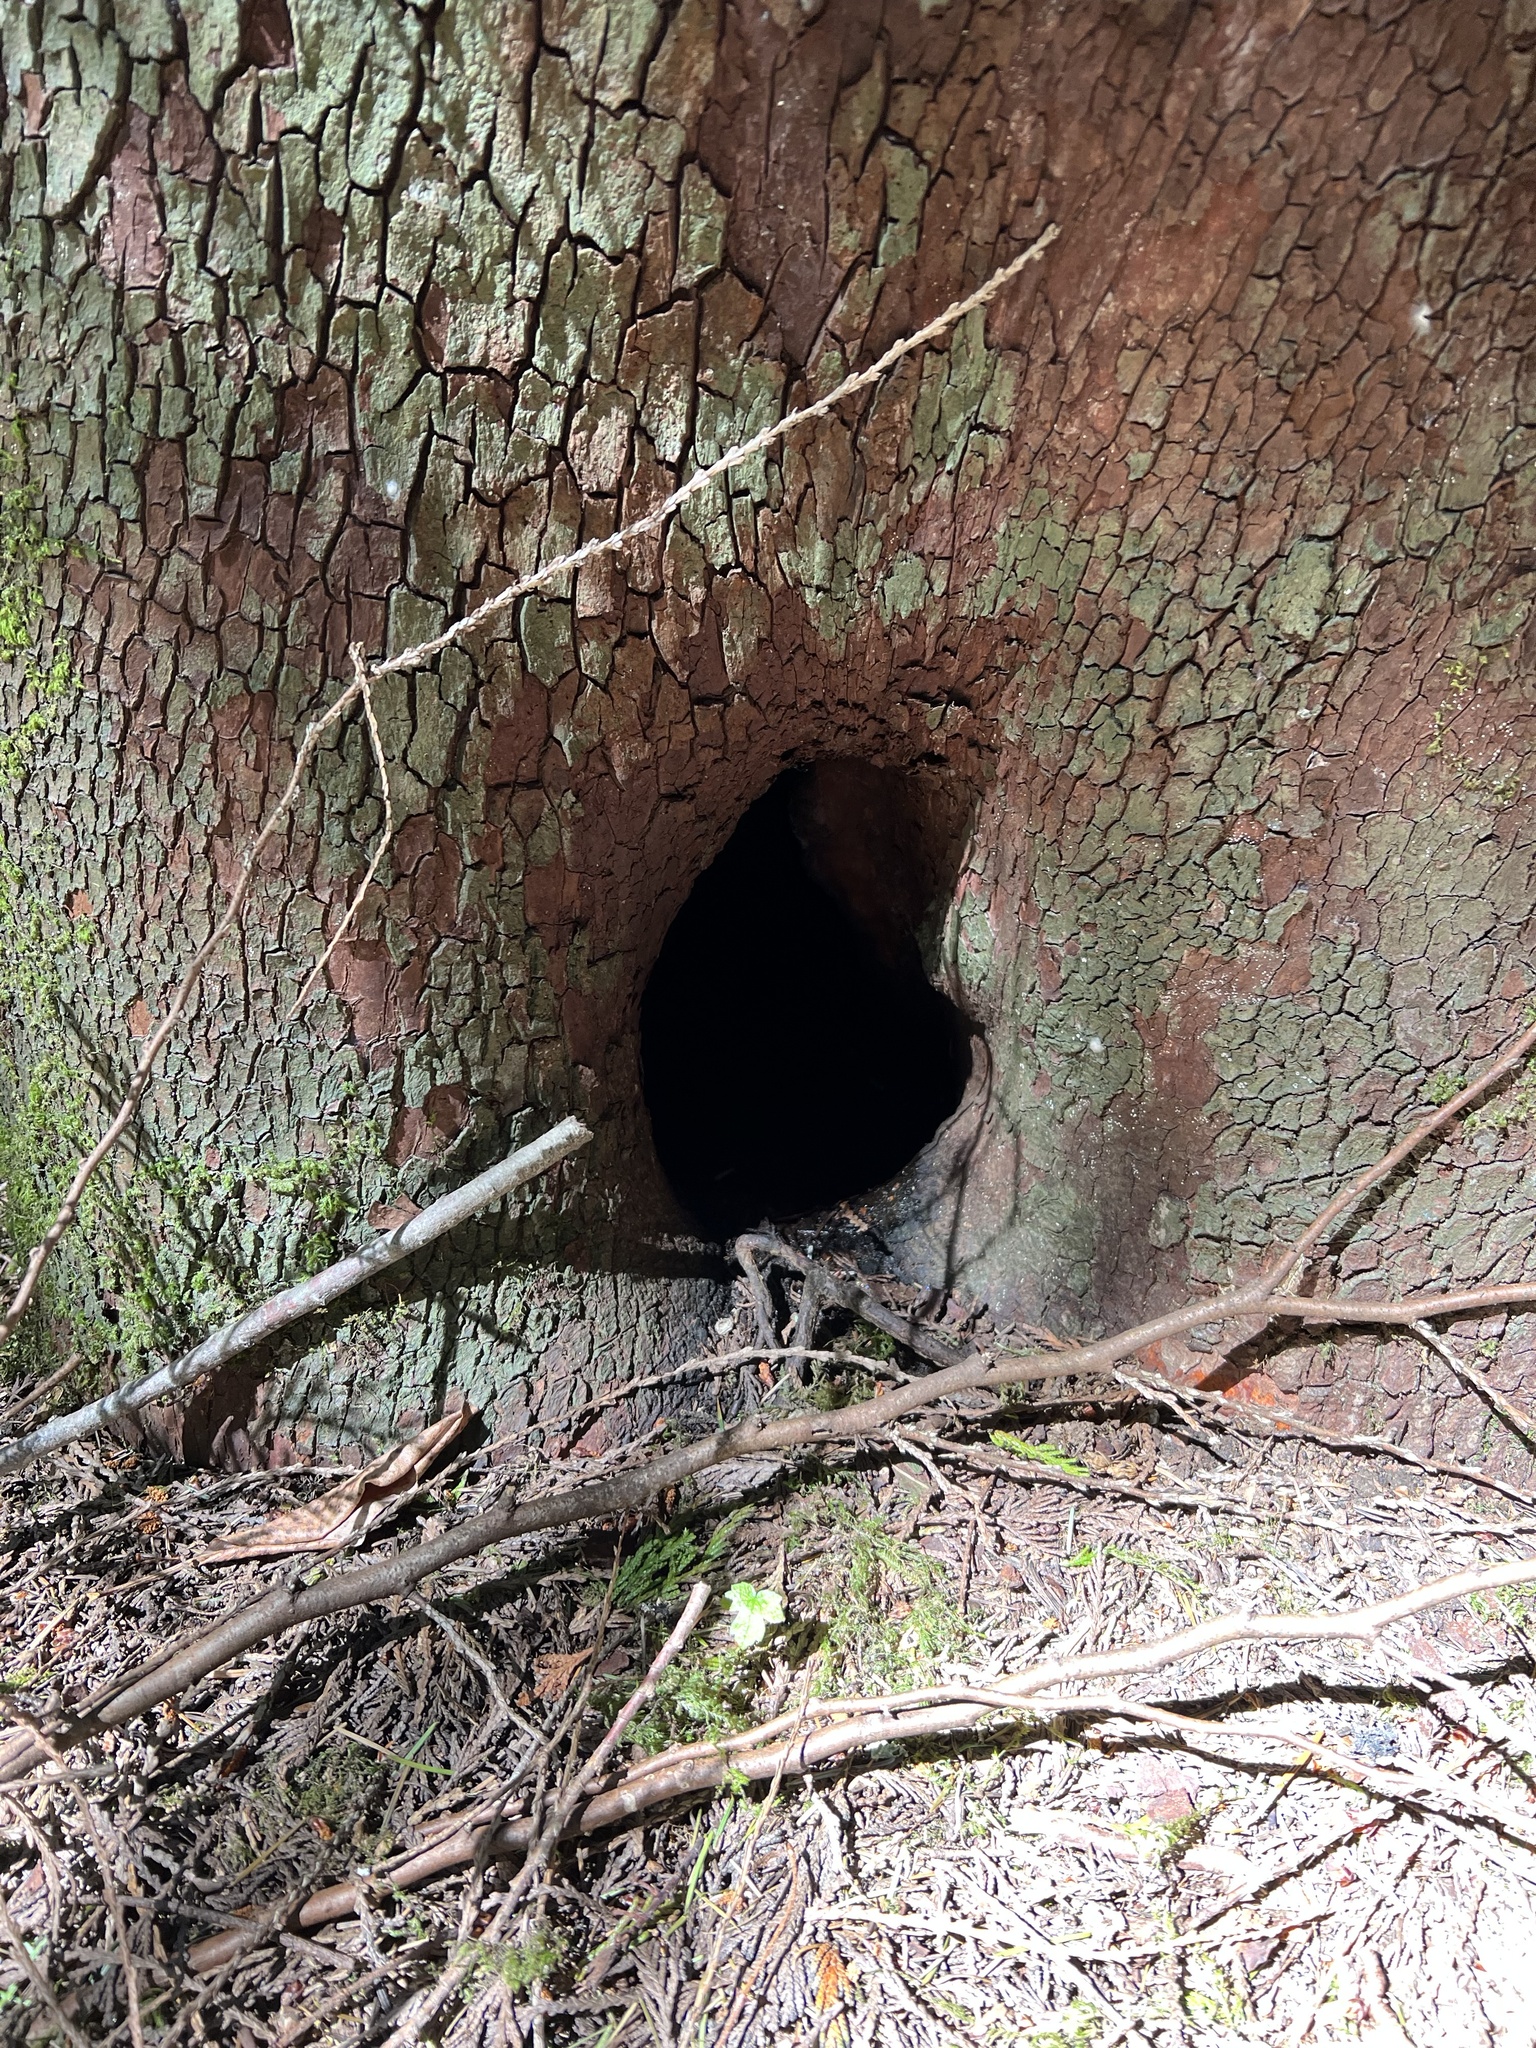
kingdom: Plantae
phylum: Tracheophyta
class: Magnoliopsida
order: Ericales
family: Ericaceae
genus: Arbutus
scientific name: Arbutus menziesii
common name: Pacific madrone
